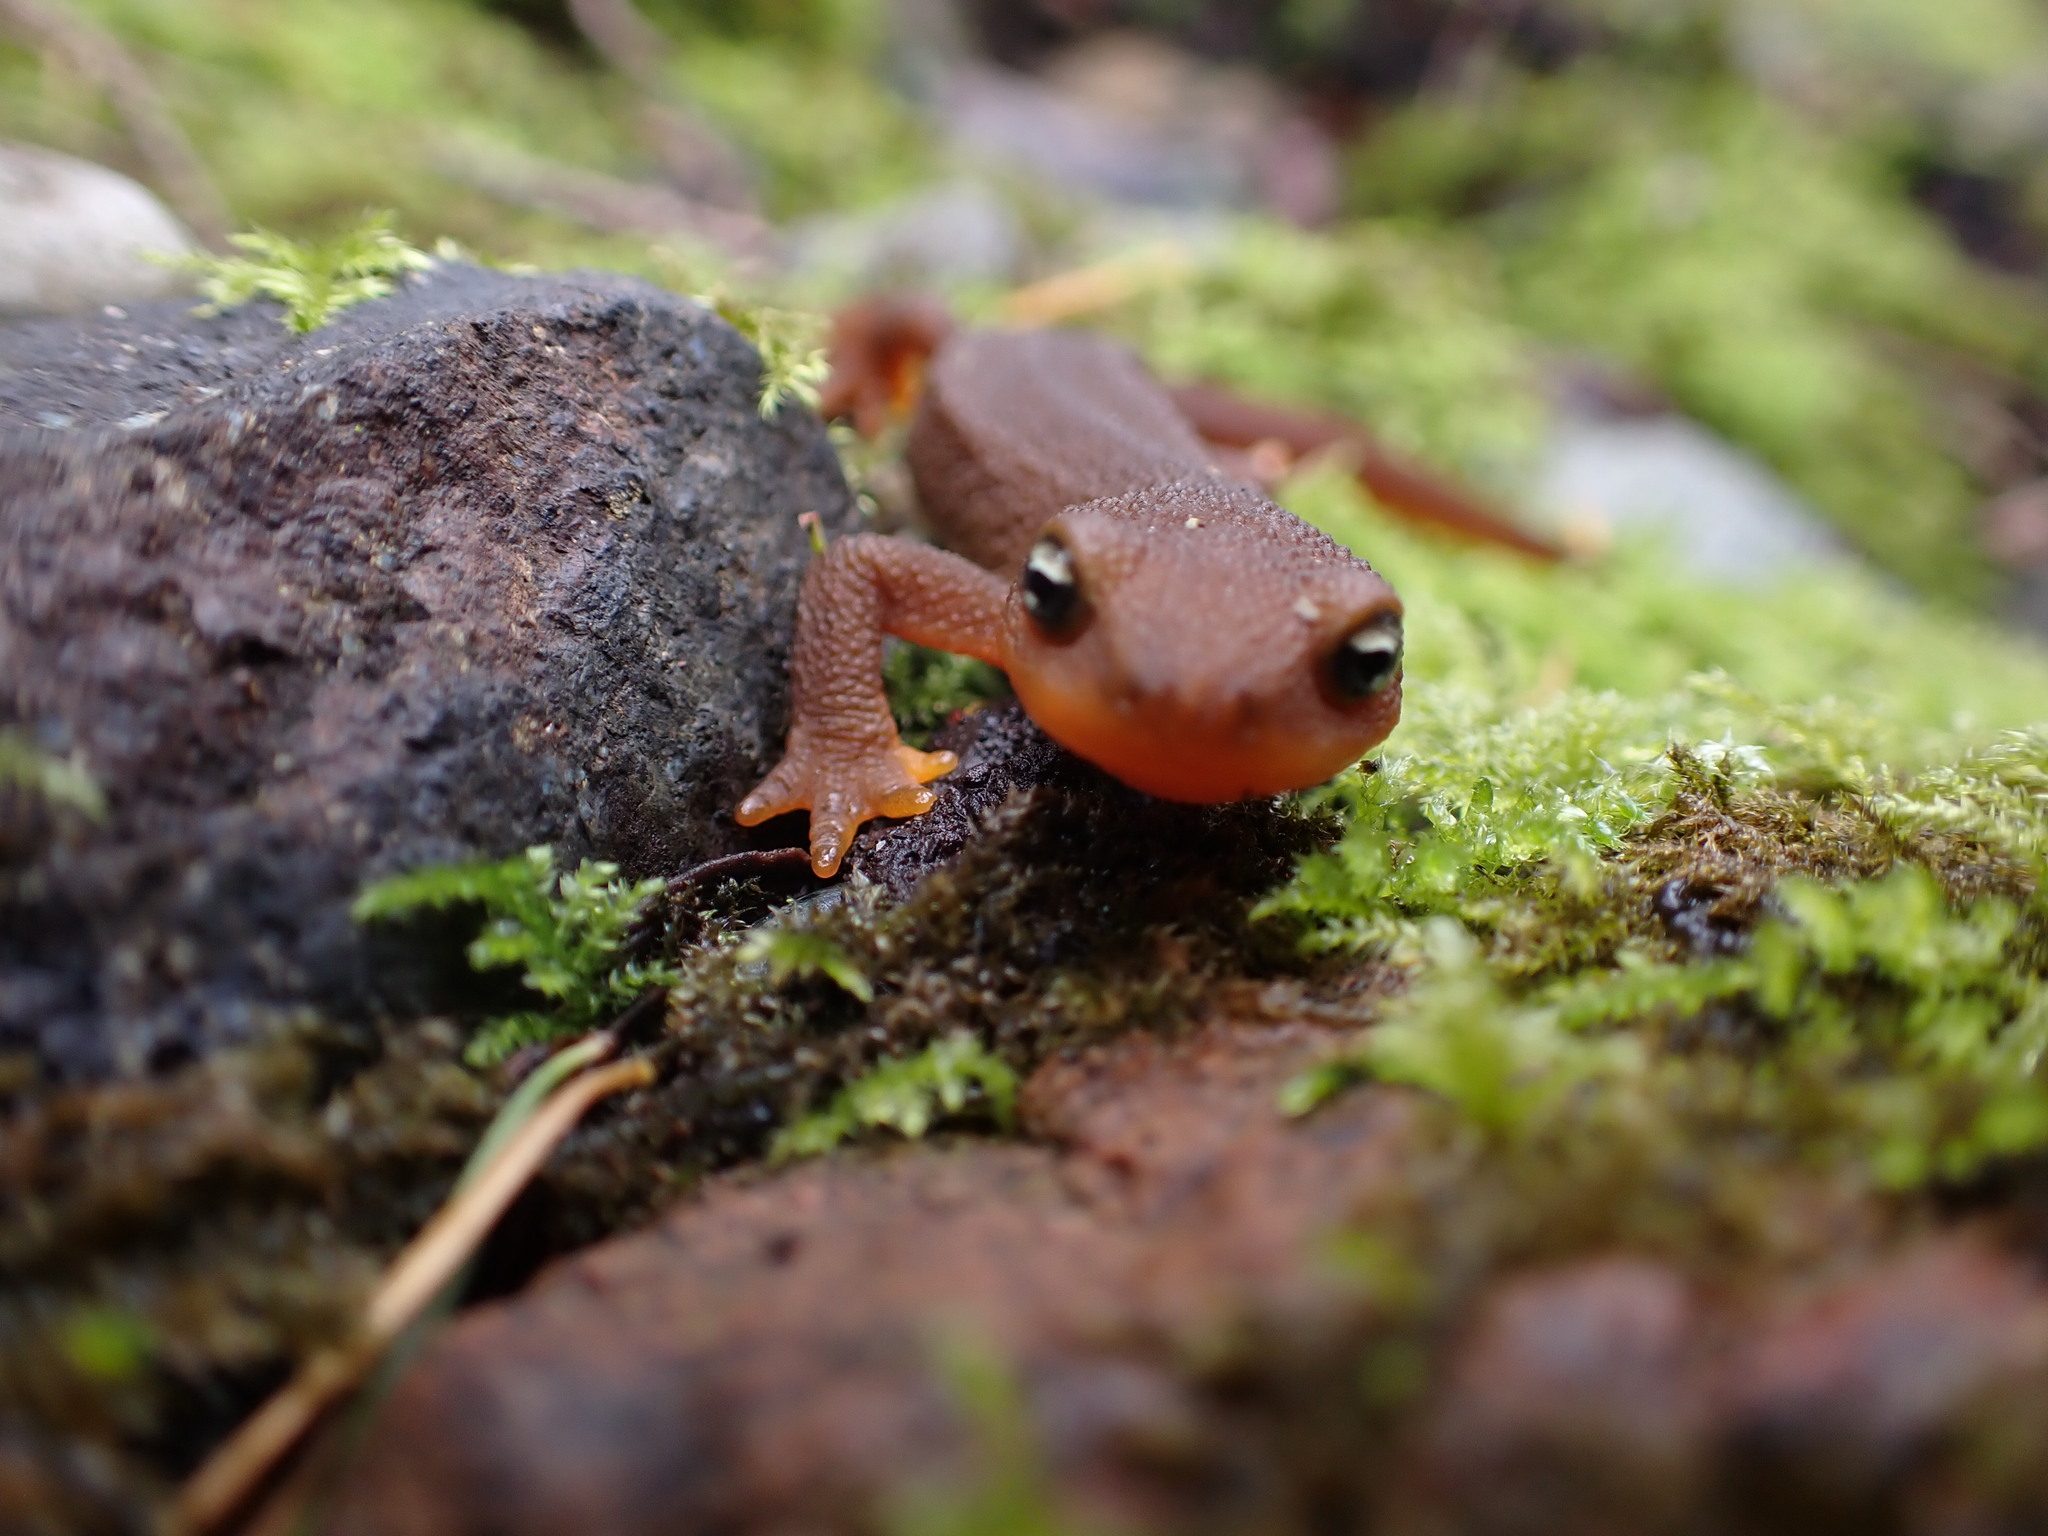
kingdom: Animalia
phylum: Chordata
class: Amphibia
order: Caudata
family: Salamandridae
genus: Taricha
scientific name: Taricha granulosa
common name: Roughskin newt
